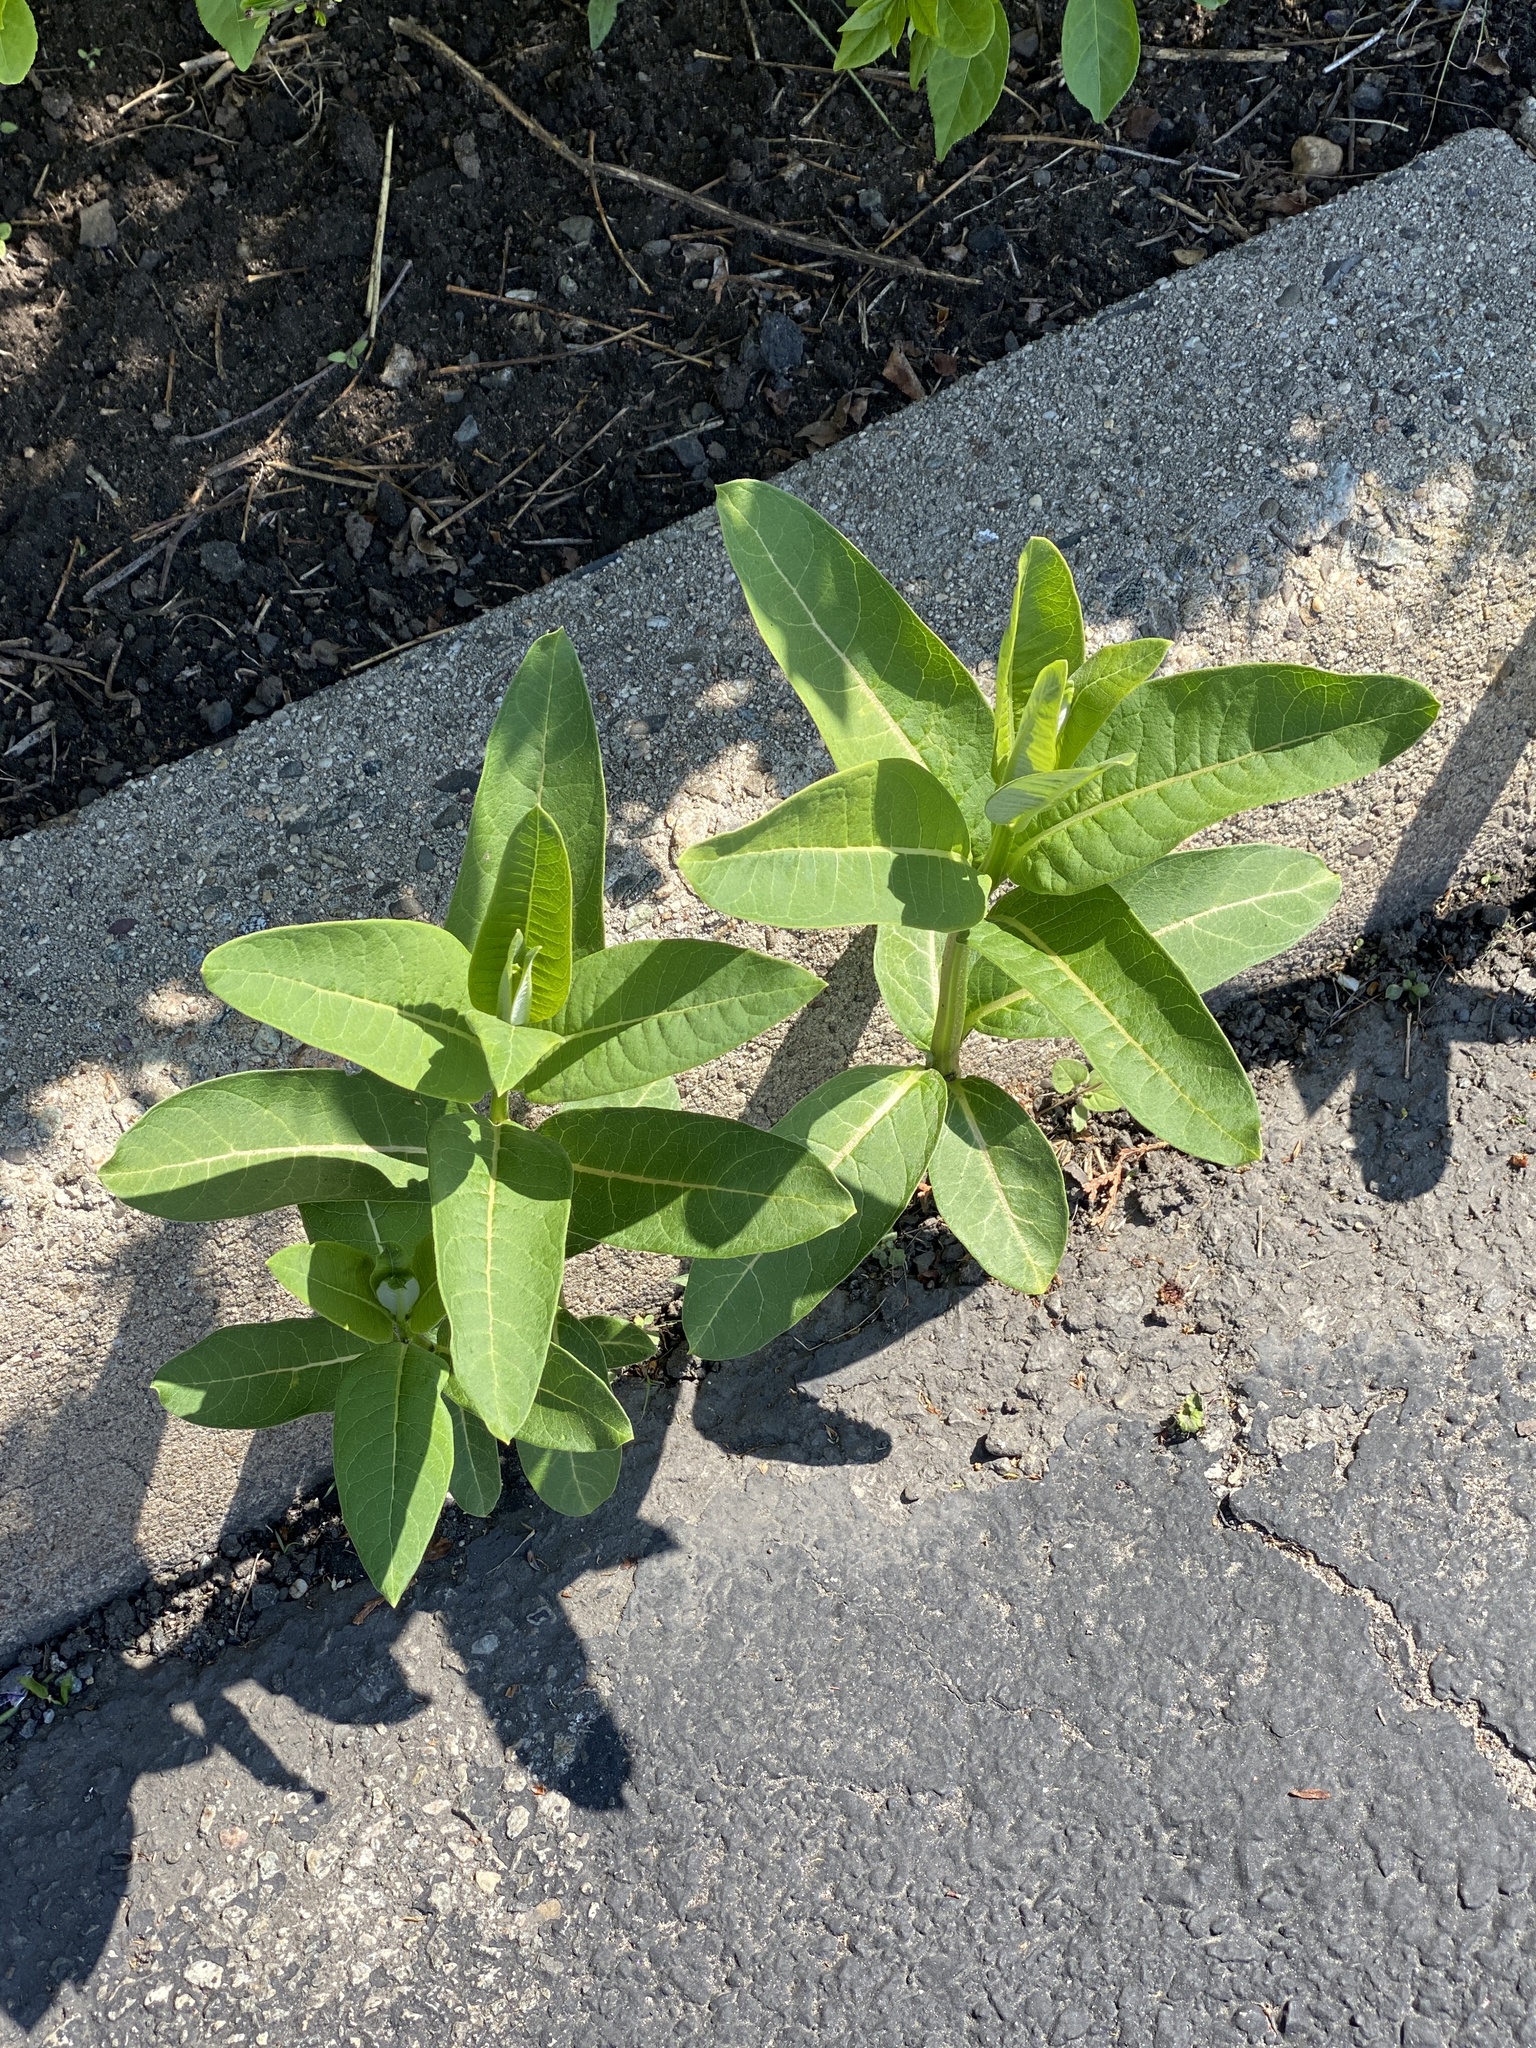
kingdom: Plantae
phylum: Tracheophyta
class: Magnoliopsida
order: Gentianales
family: Apocynaceae
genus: Asclepias
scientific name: Asclepias syriaca
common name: Common milkweed
